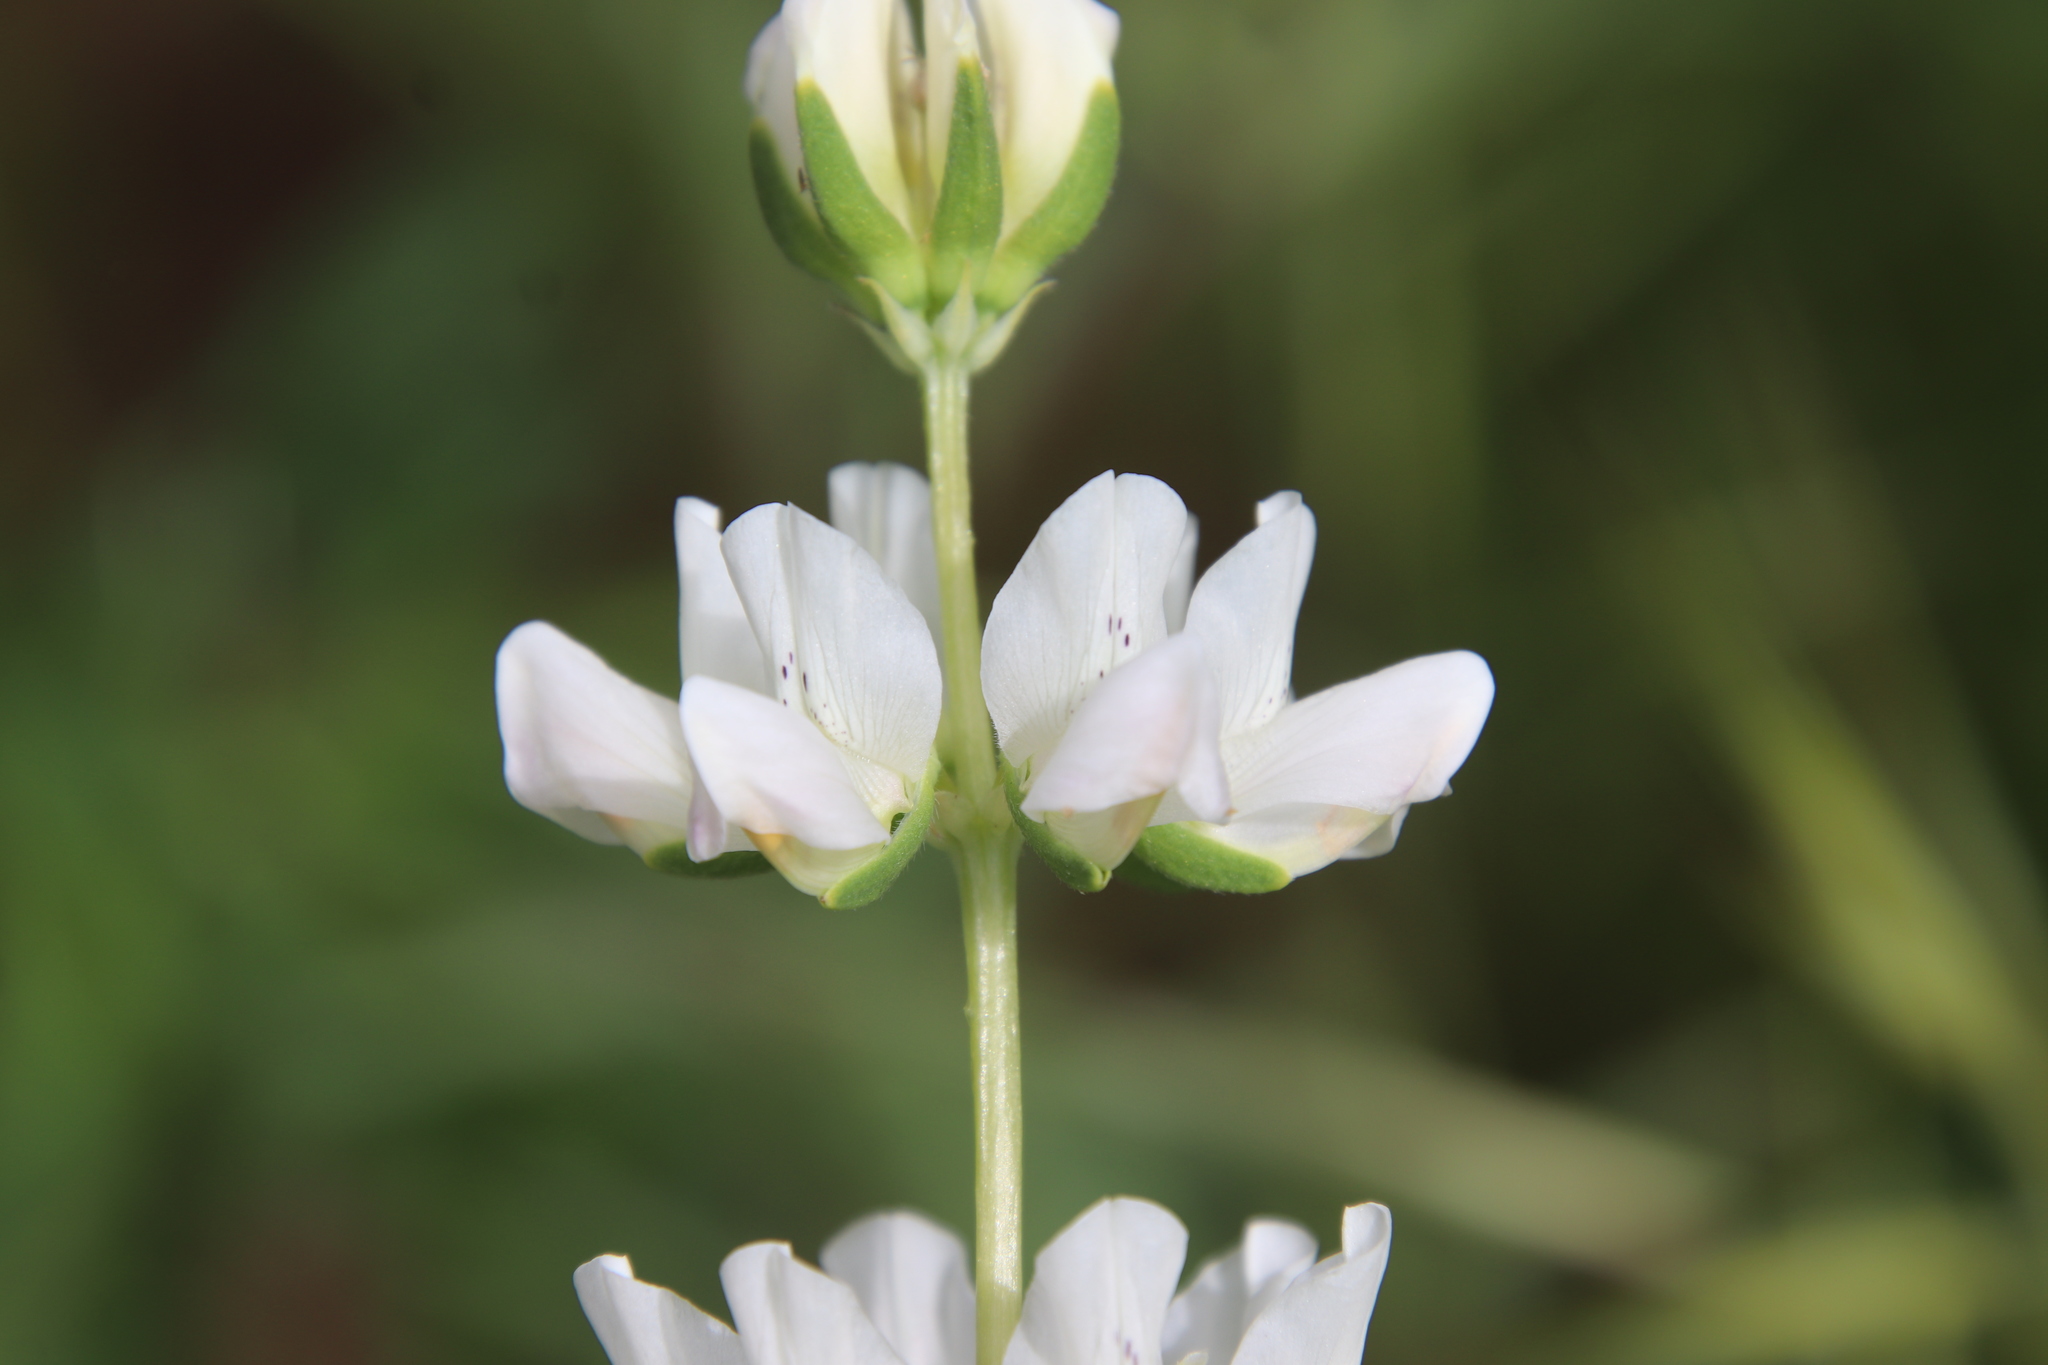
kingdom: Plantae
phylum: Tracheophyta
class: Magnoliopsida
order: Fabales
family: Fabaceae
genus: Lupinus
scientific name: Lupinus microcarpus
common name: Chick lupine
